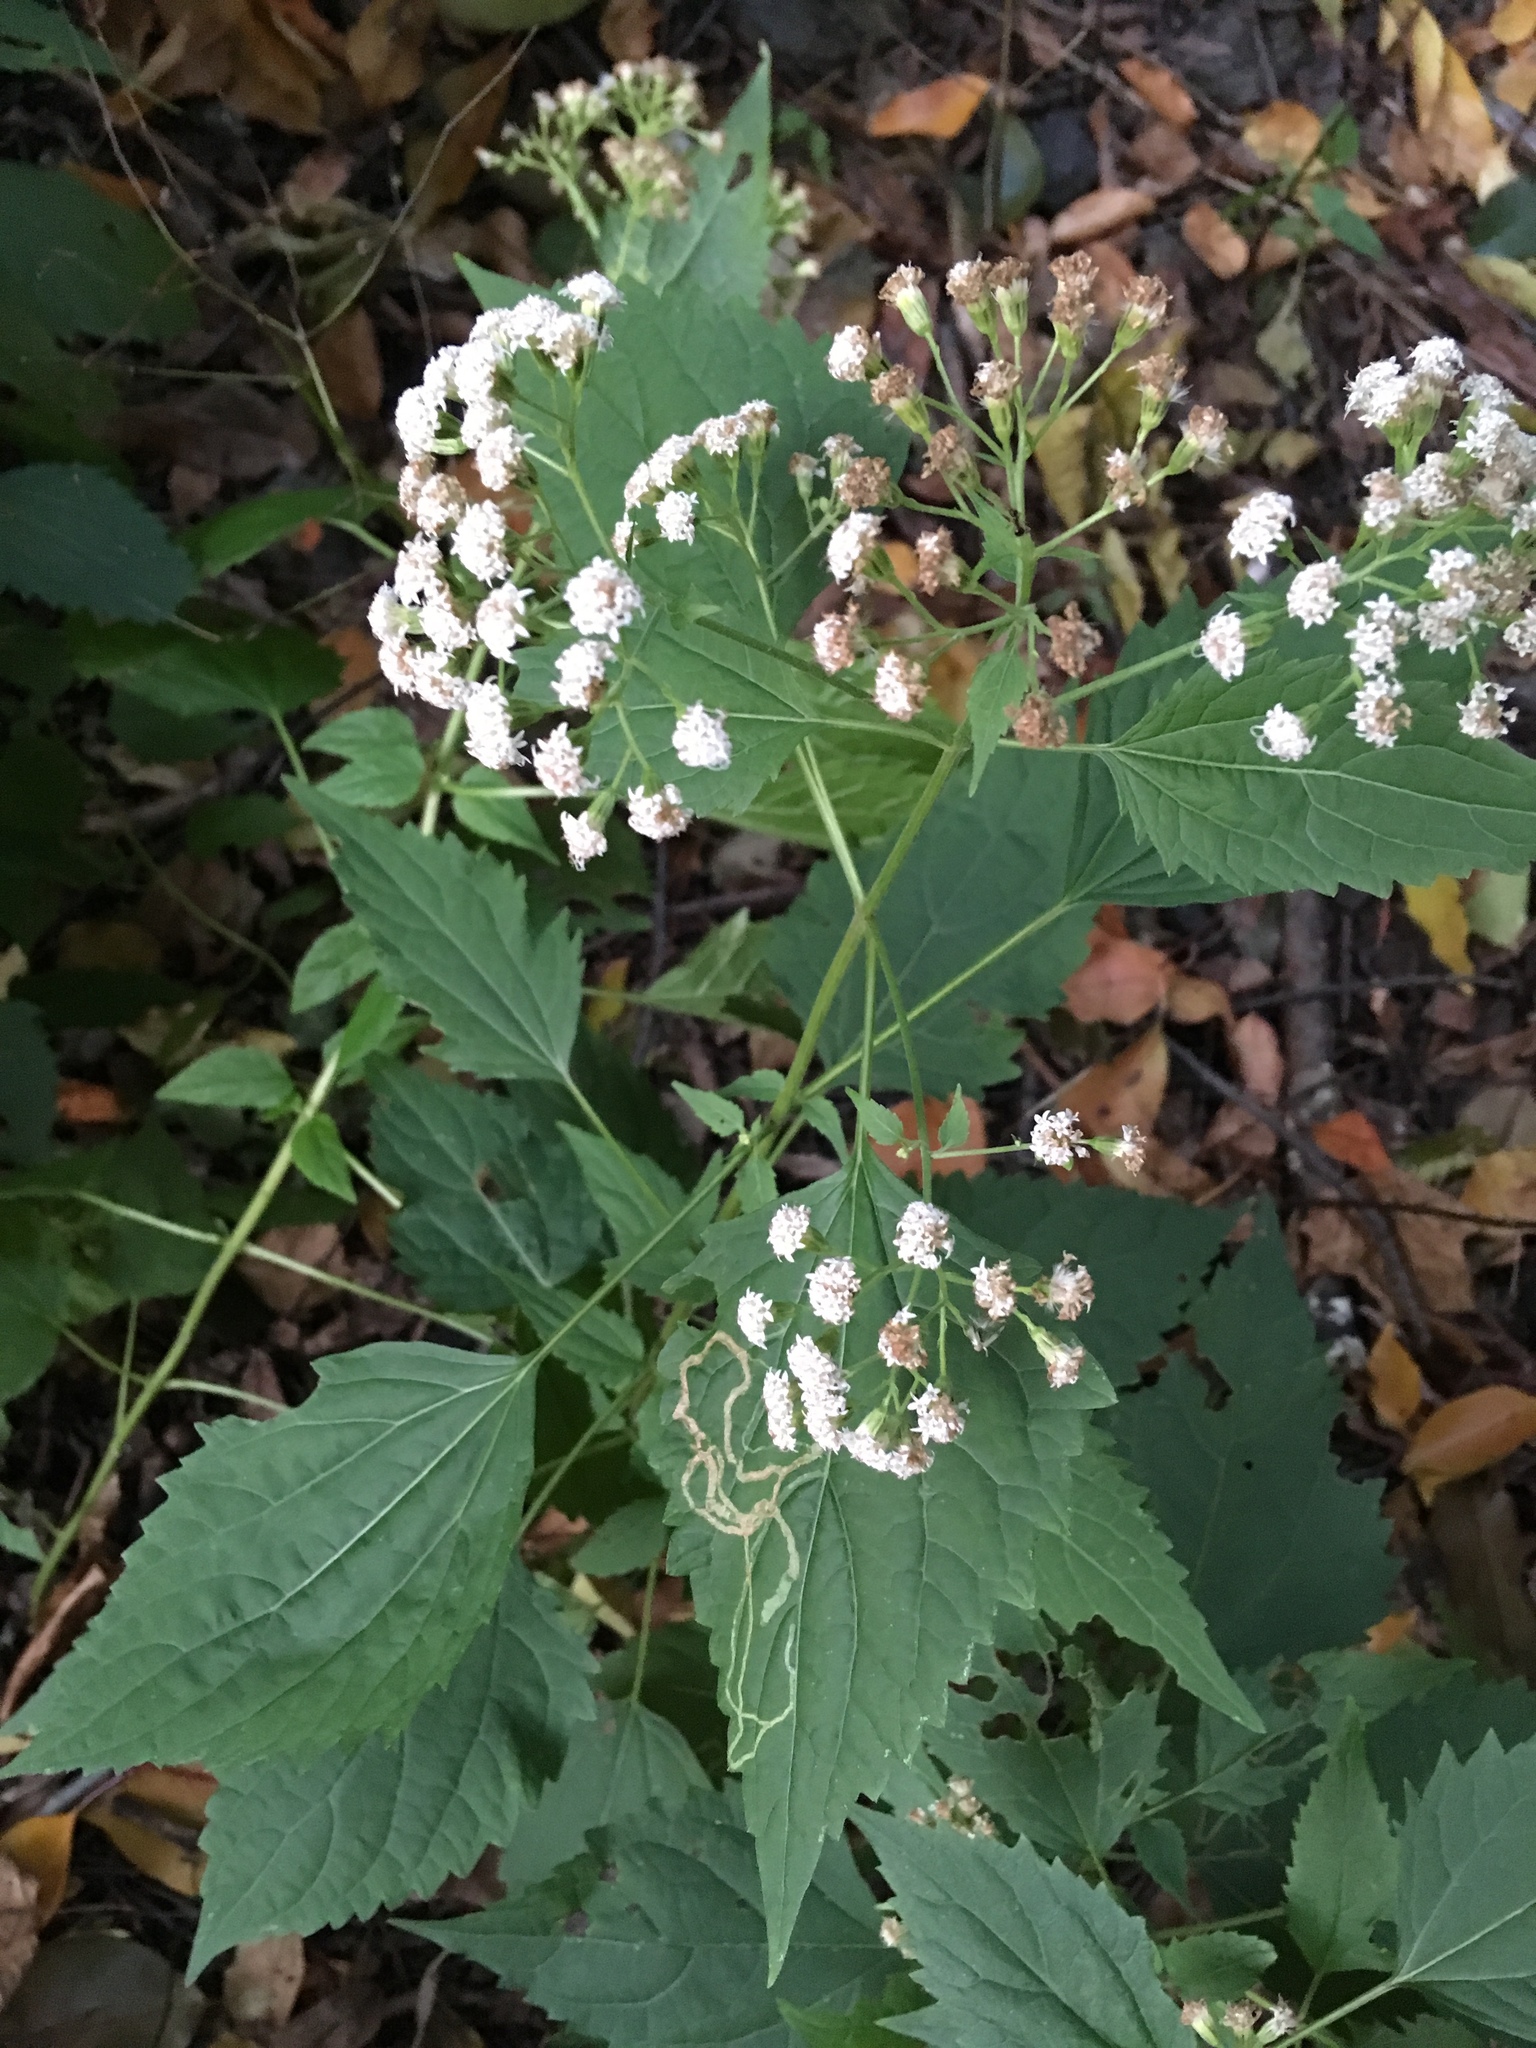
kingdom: Plantae
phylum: Tracheophyta
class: Magnoliopsida
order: Asterales
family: Asteraceae
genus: Ageratina
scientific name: Ageratina altissima
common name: White snakeroot
